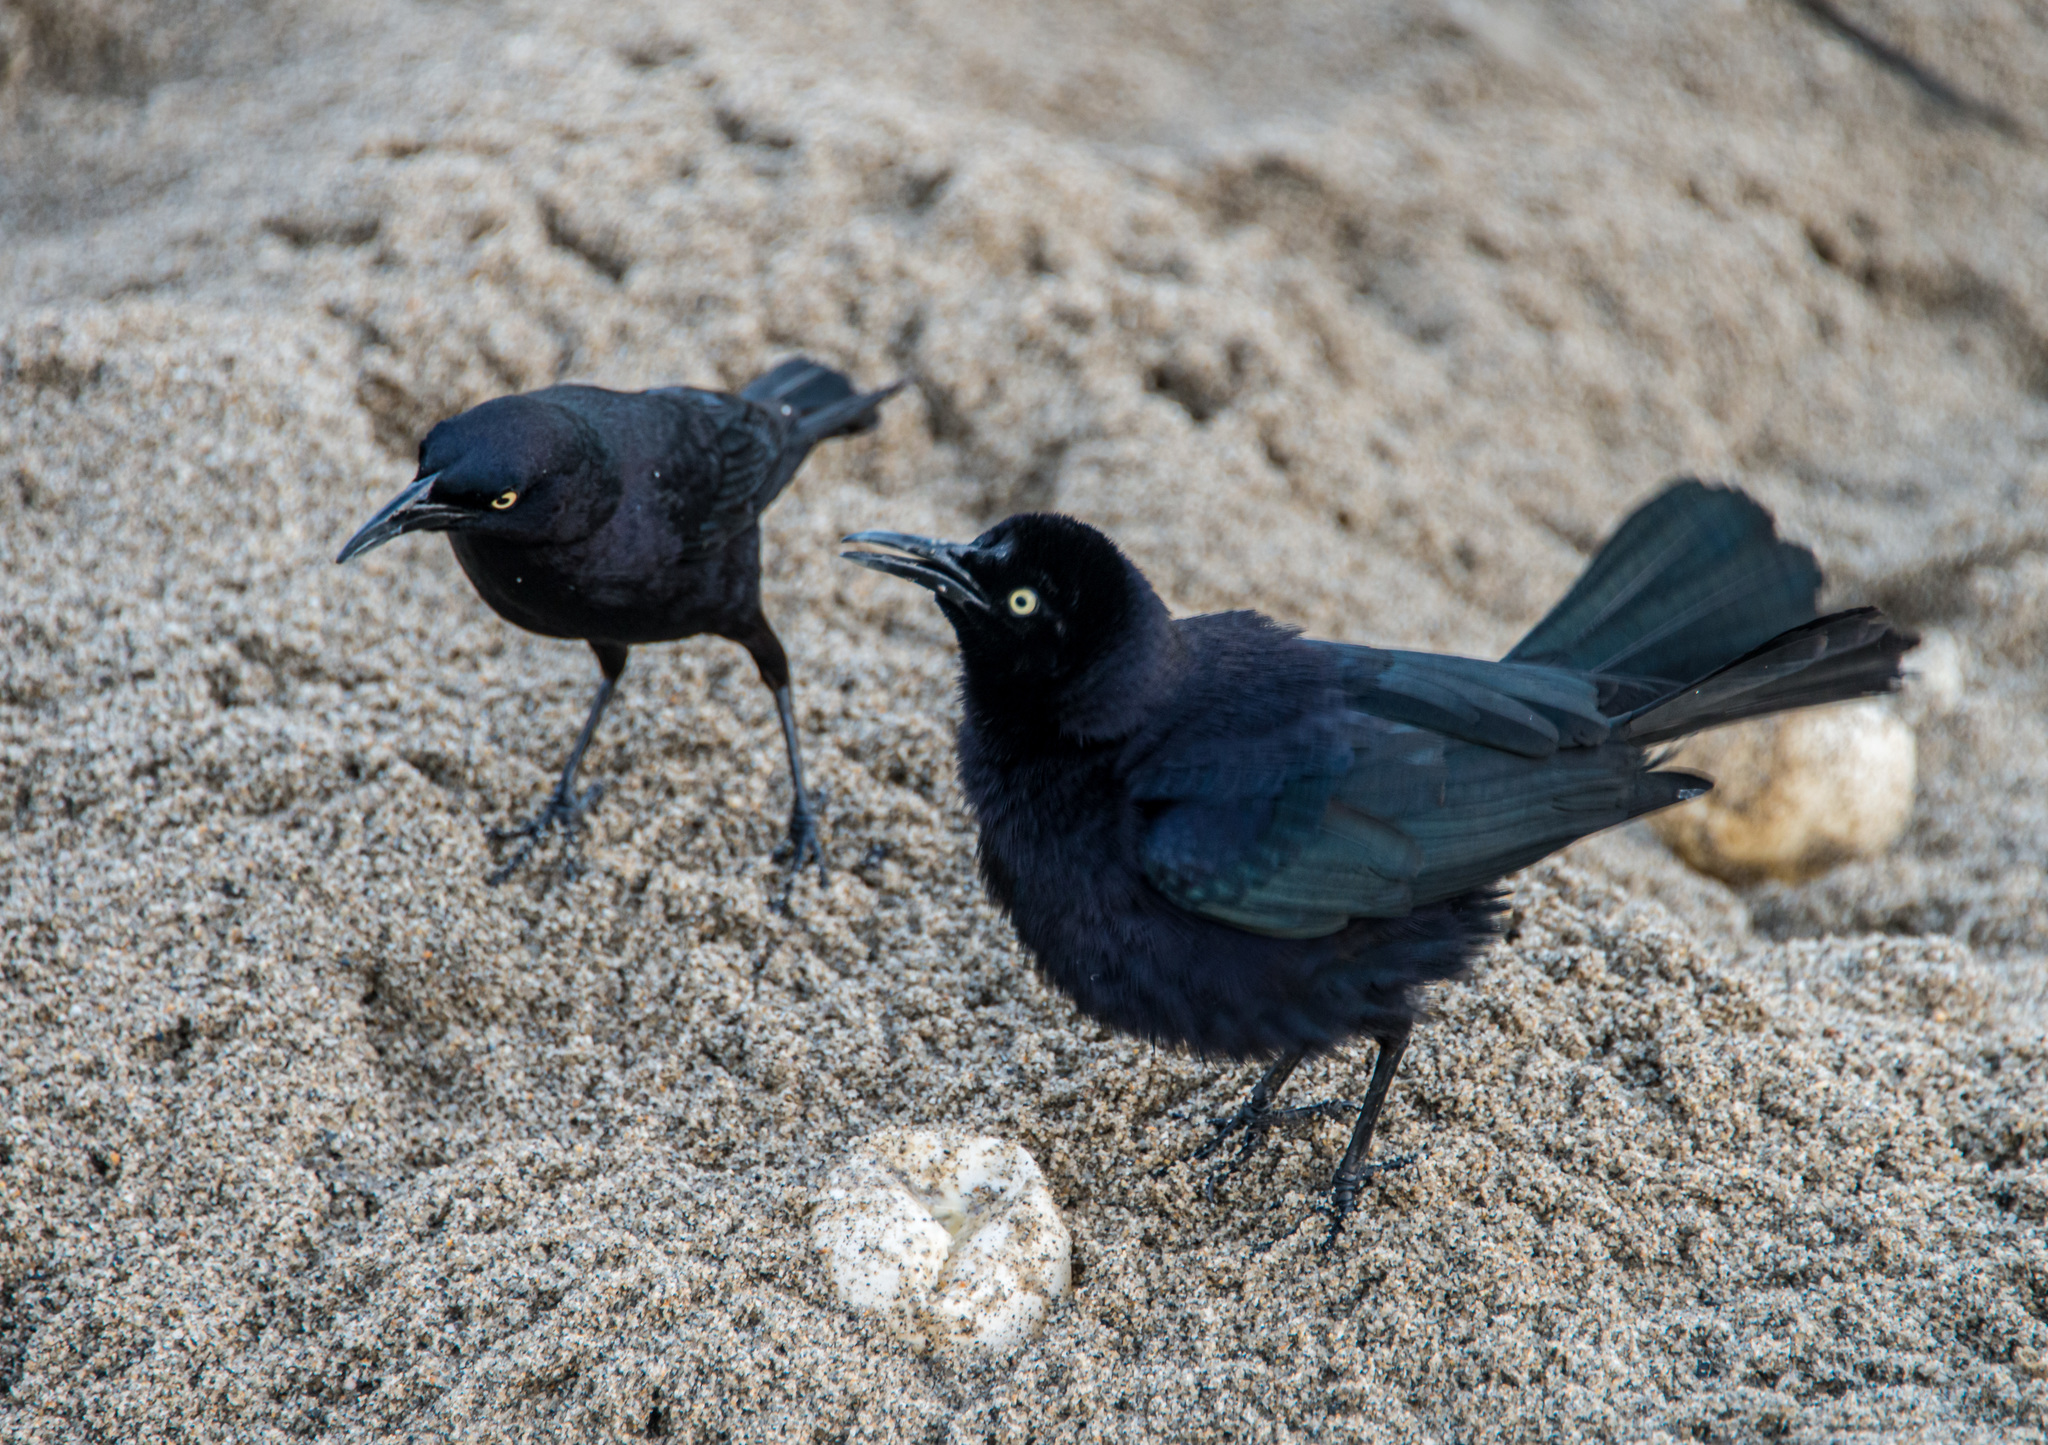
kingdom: Animalia
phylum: Chordata
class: Aves
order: Passeriformes
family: Icteridae
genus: Quiscalus
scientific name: Quiscalus lugubris
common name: Carib grackle
